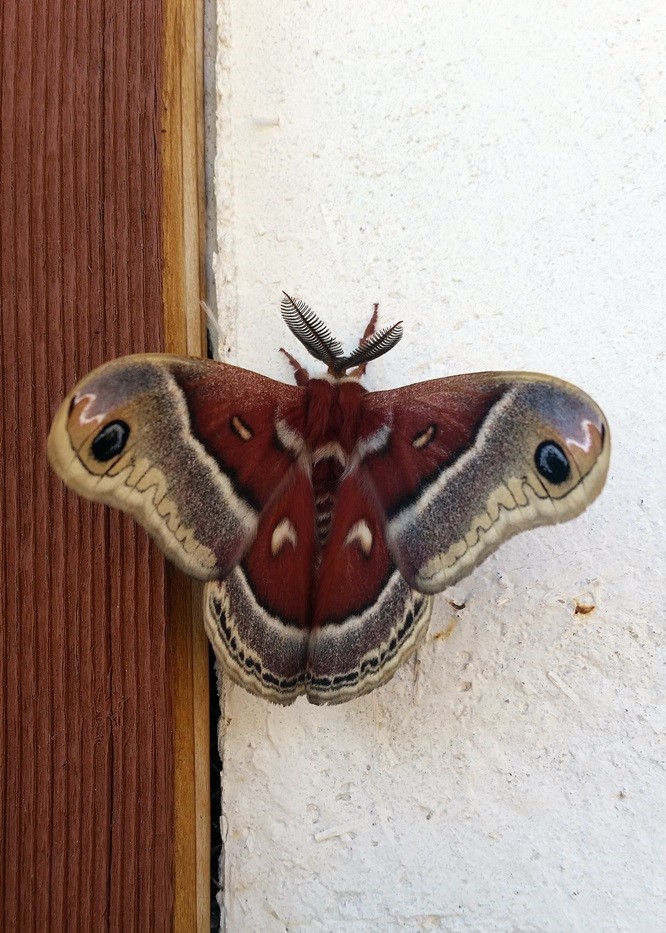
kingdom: Animalia
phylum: Arthropoda
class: Insecta
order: Lepidoptera
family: Saturniidae
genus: Hyalophora
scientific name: Hyalophora gloveri
